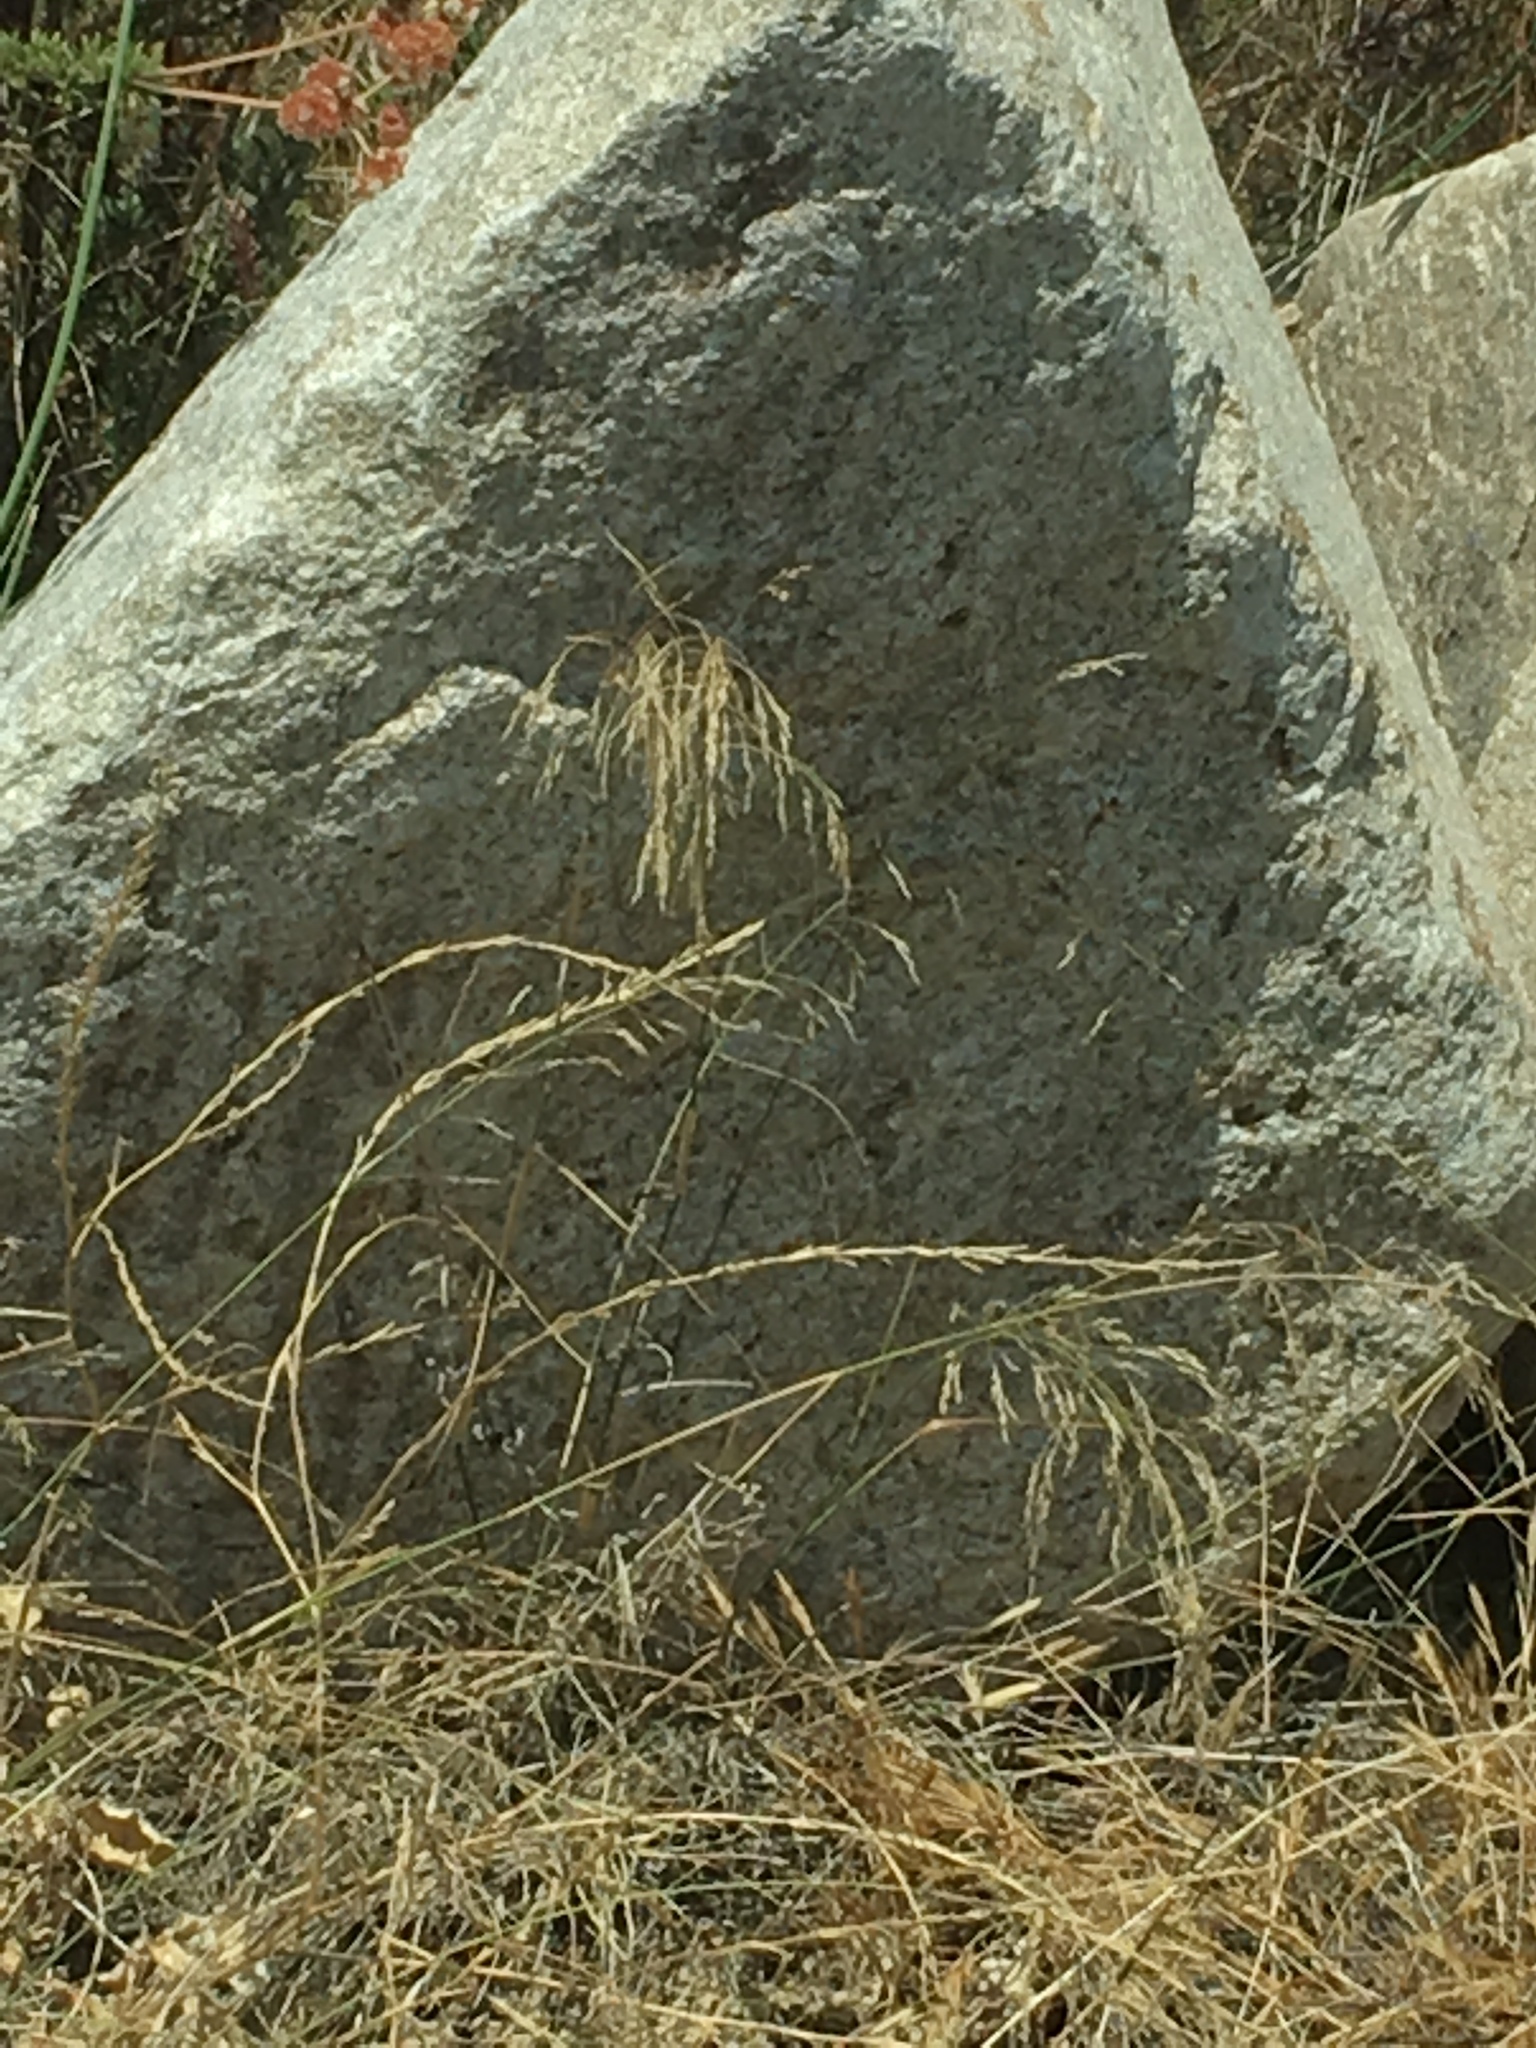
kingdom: Plantae
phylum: Tracheophyta
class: Liliopsida
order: Poales
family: Poaceae
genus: Oloptum
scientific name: Oloptum miliaceum
